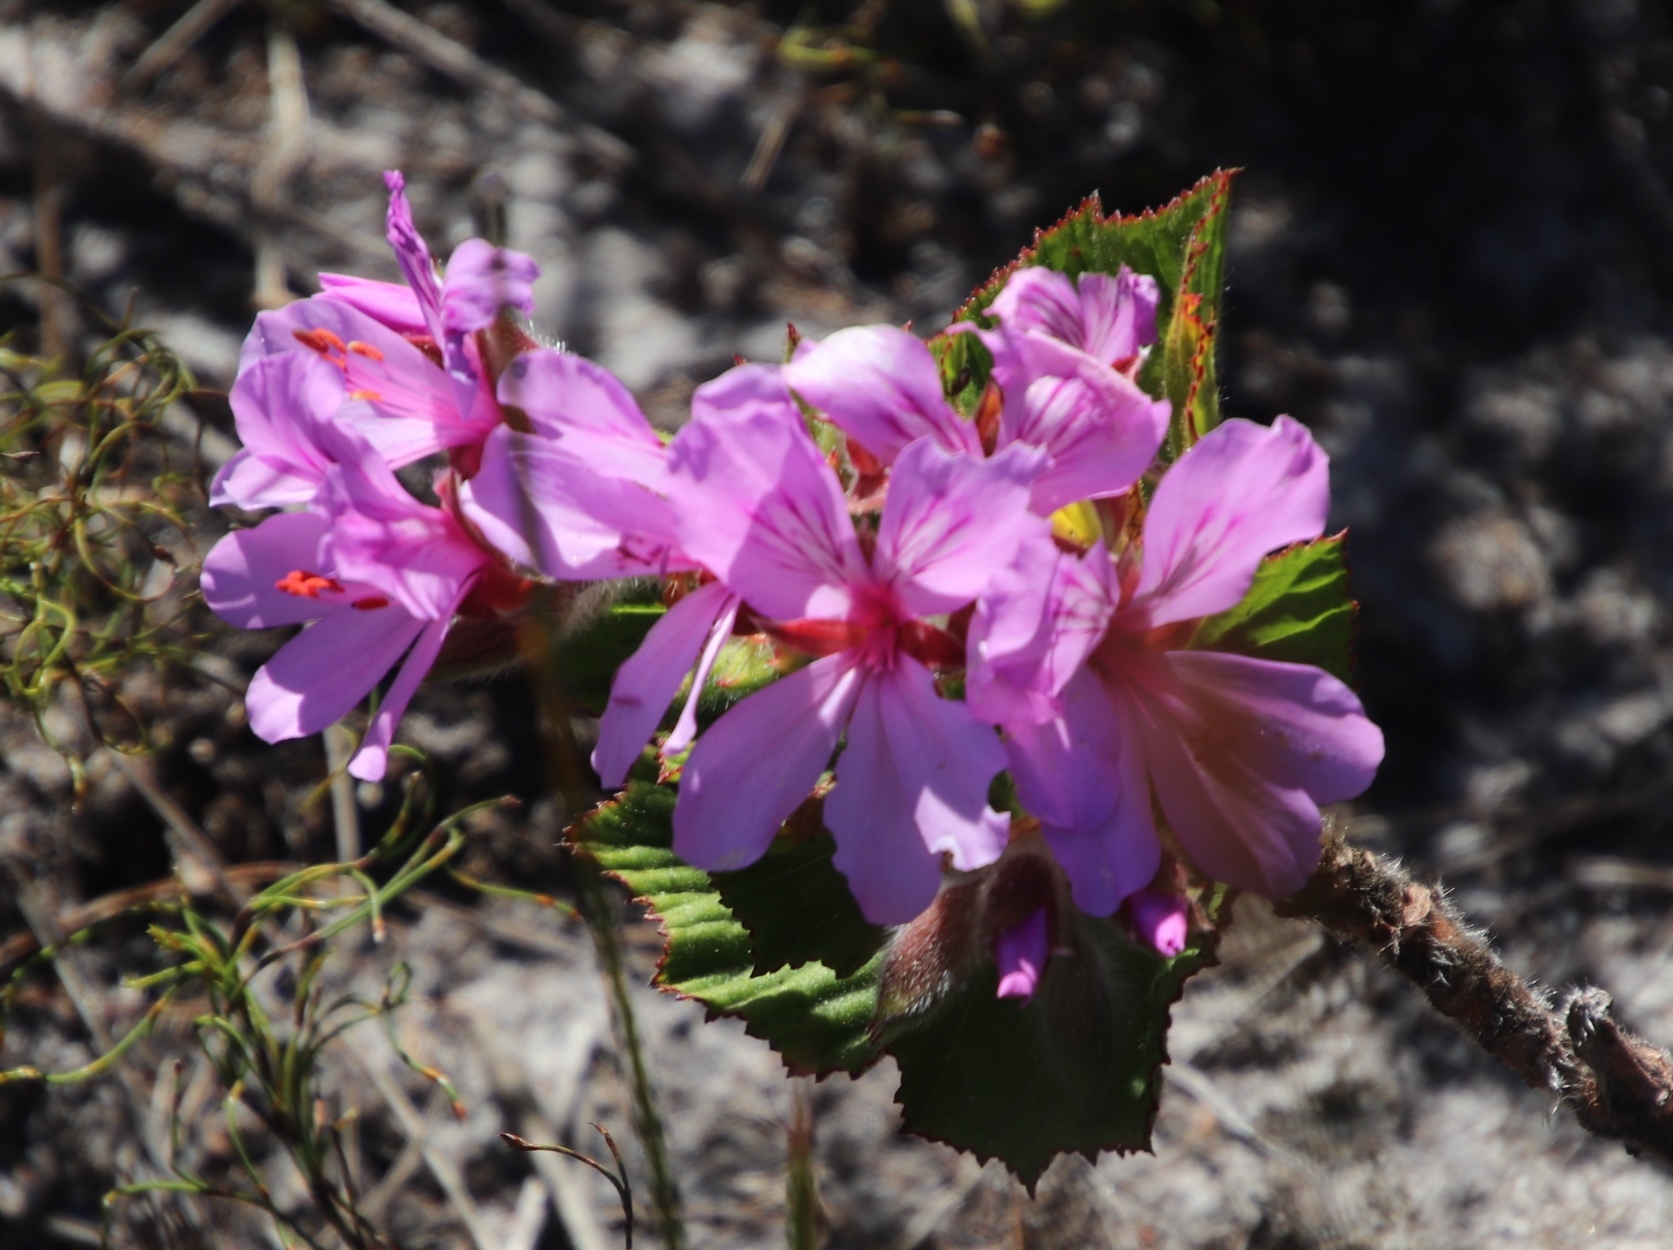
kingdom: Plantae
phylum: Tracheophyta
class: Magnoliopsida
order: Geraniales
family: Geraniaceae
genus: Pelargonium
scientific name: Pelargonium cucullatum
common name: Tree pelargonium
